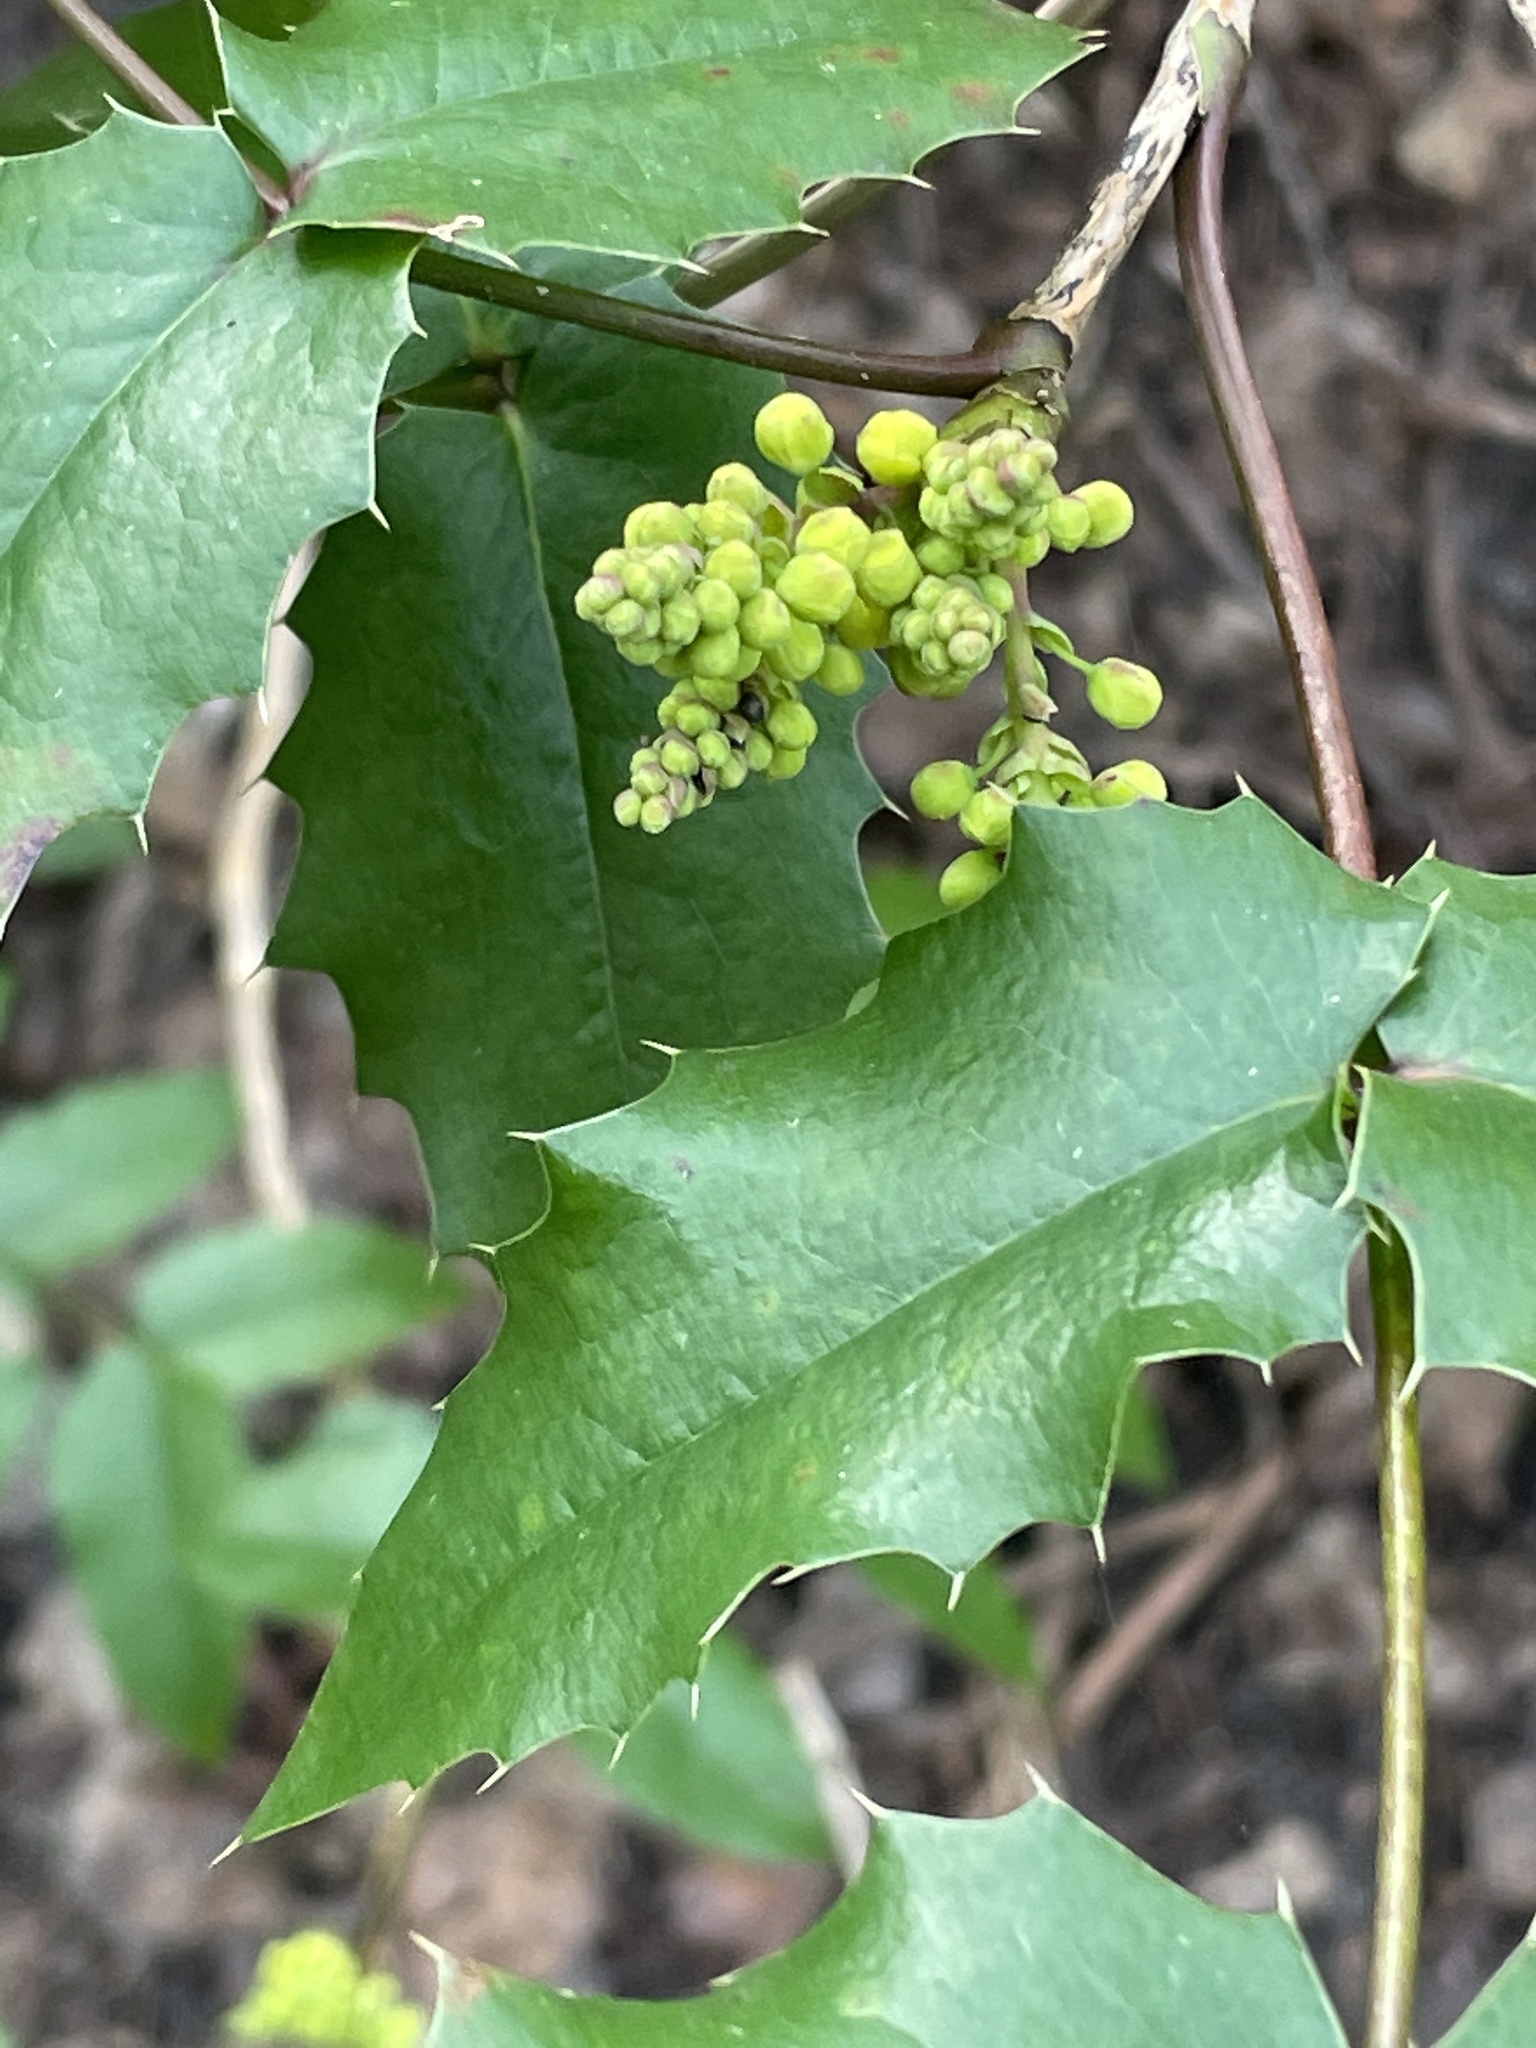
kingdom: Plantae
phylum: Tracheophyta
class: Magnoliopsida
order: Ranunculales
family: Berberidaceae
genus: Mahonia
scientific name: Mahonia aquifolium
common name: Oregon-grape
